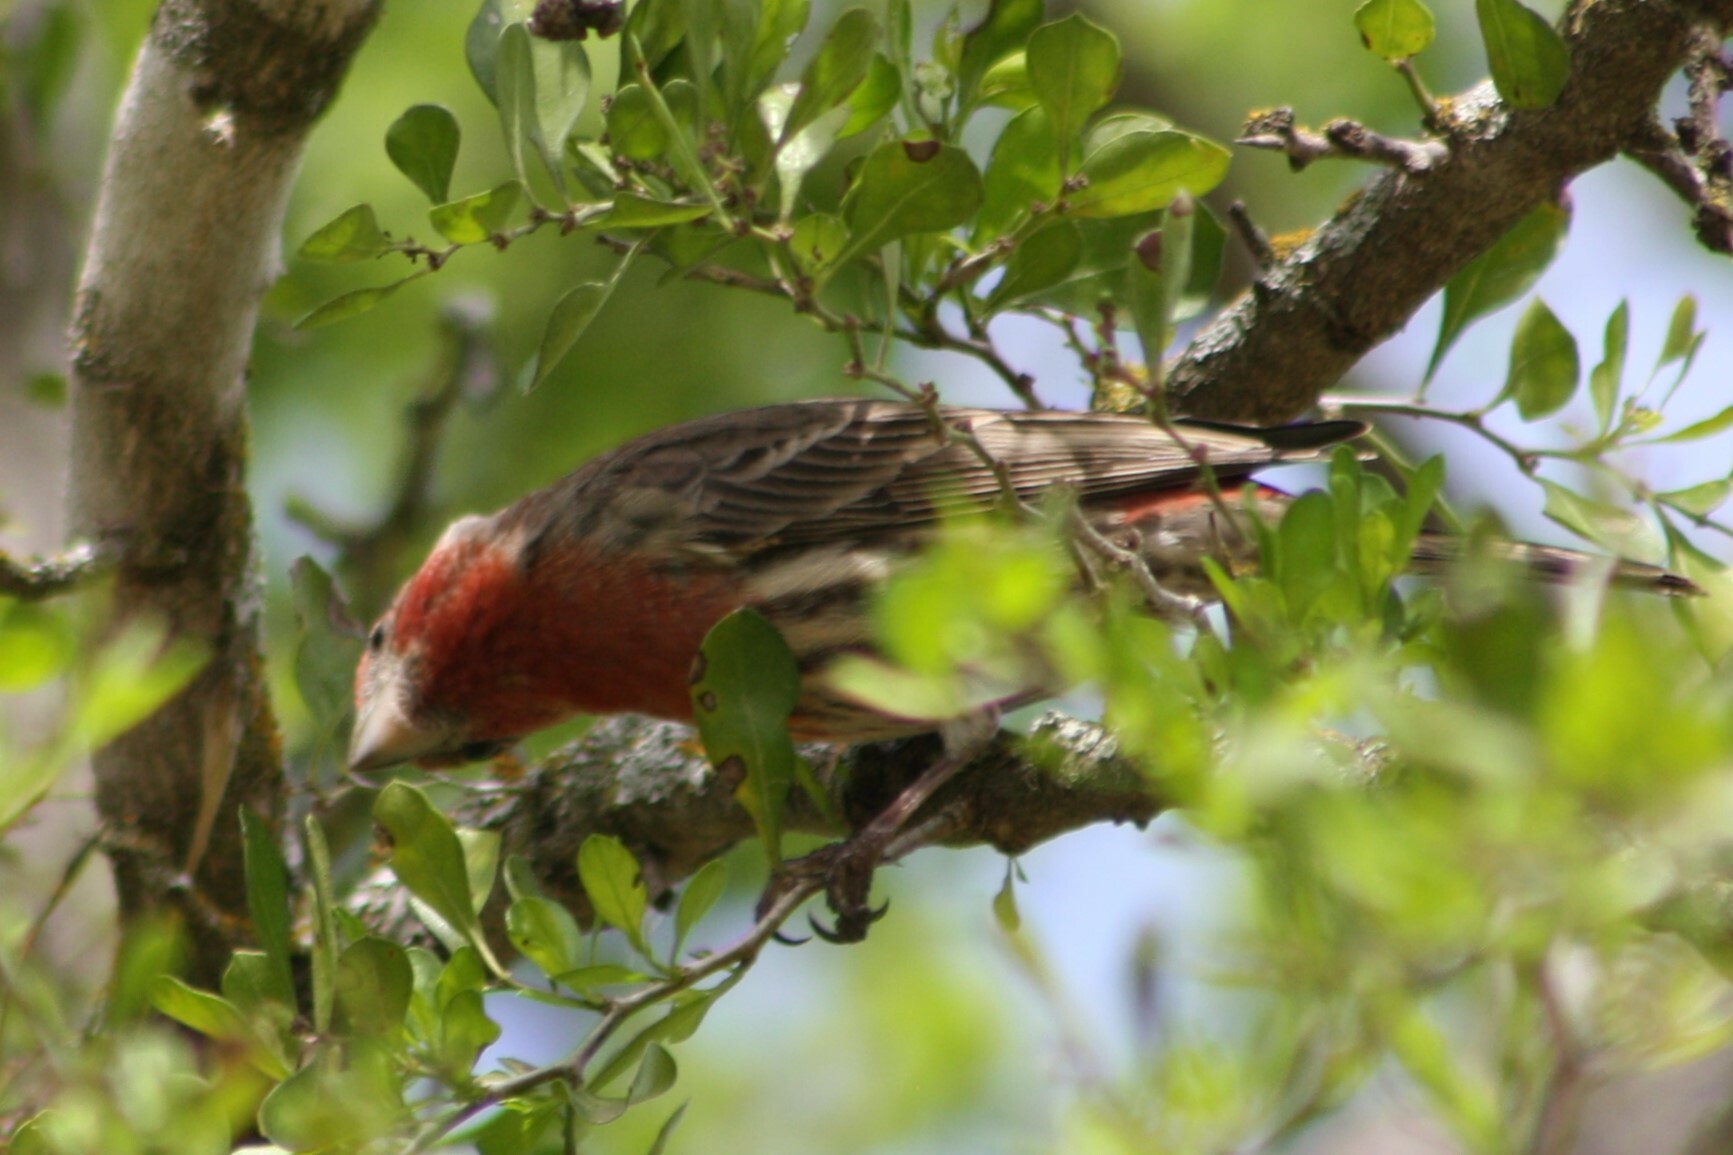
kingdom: Animalia
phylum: Chordata
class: Aves
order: Passeriformes
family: Fringillidae
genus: Haemorhous
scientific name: Haemorhous mexicanus
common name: House finch
